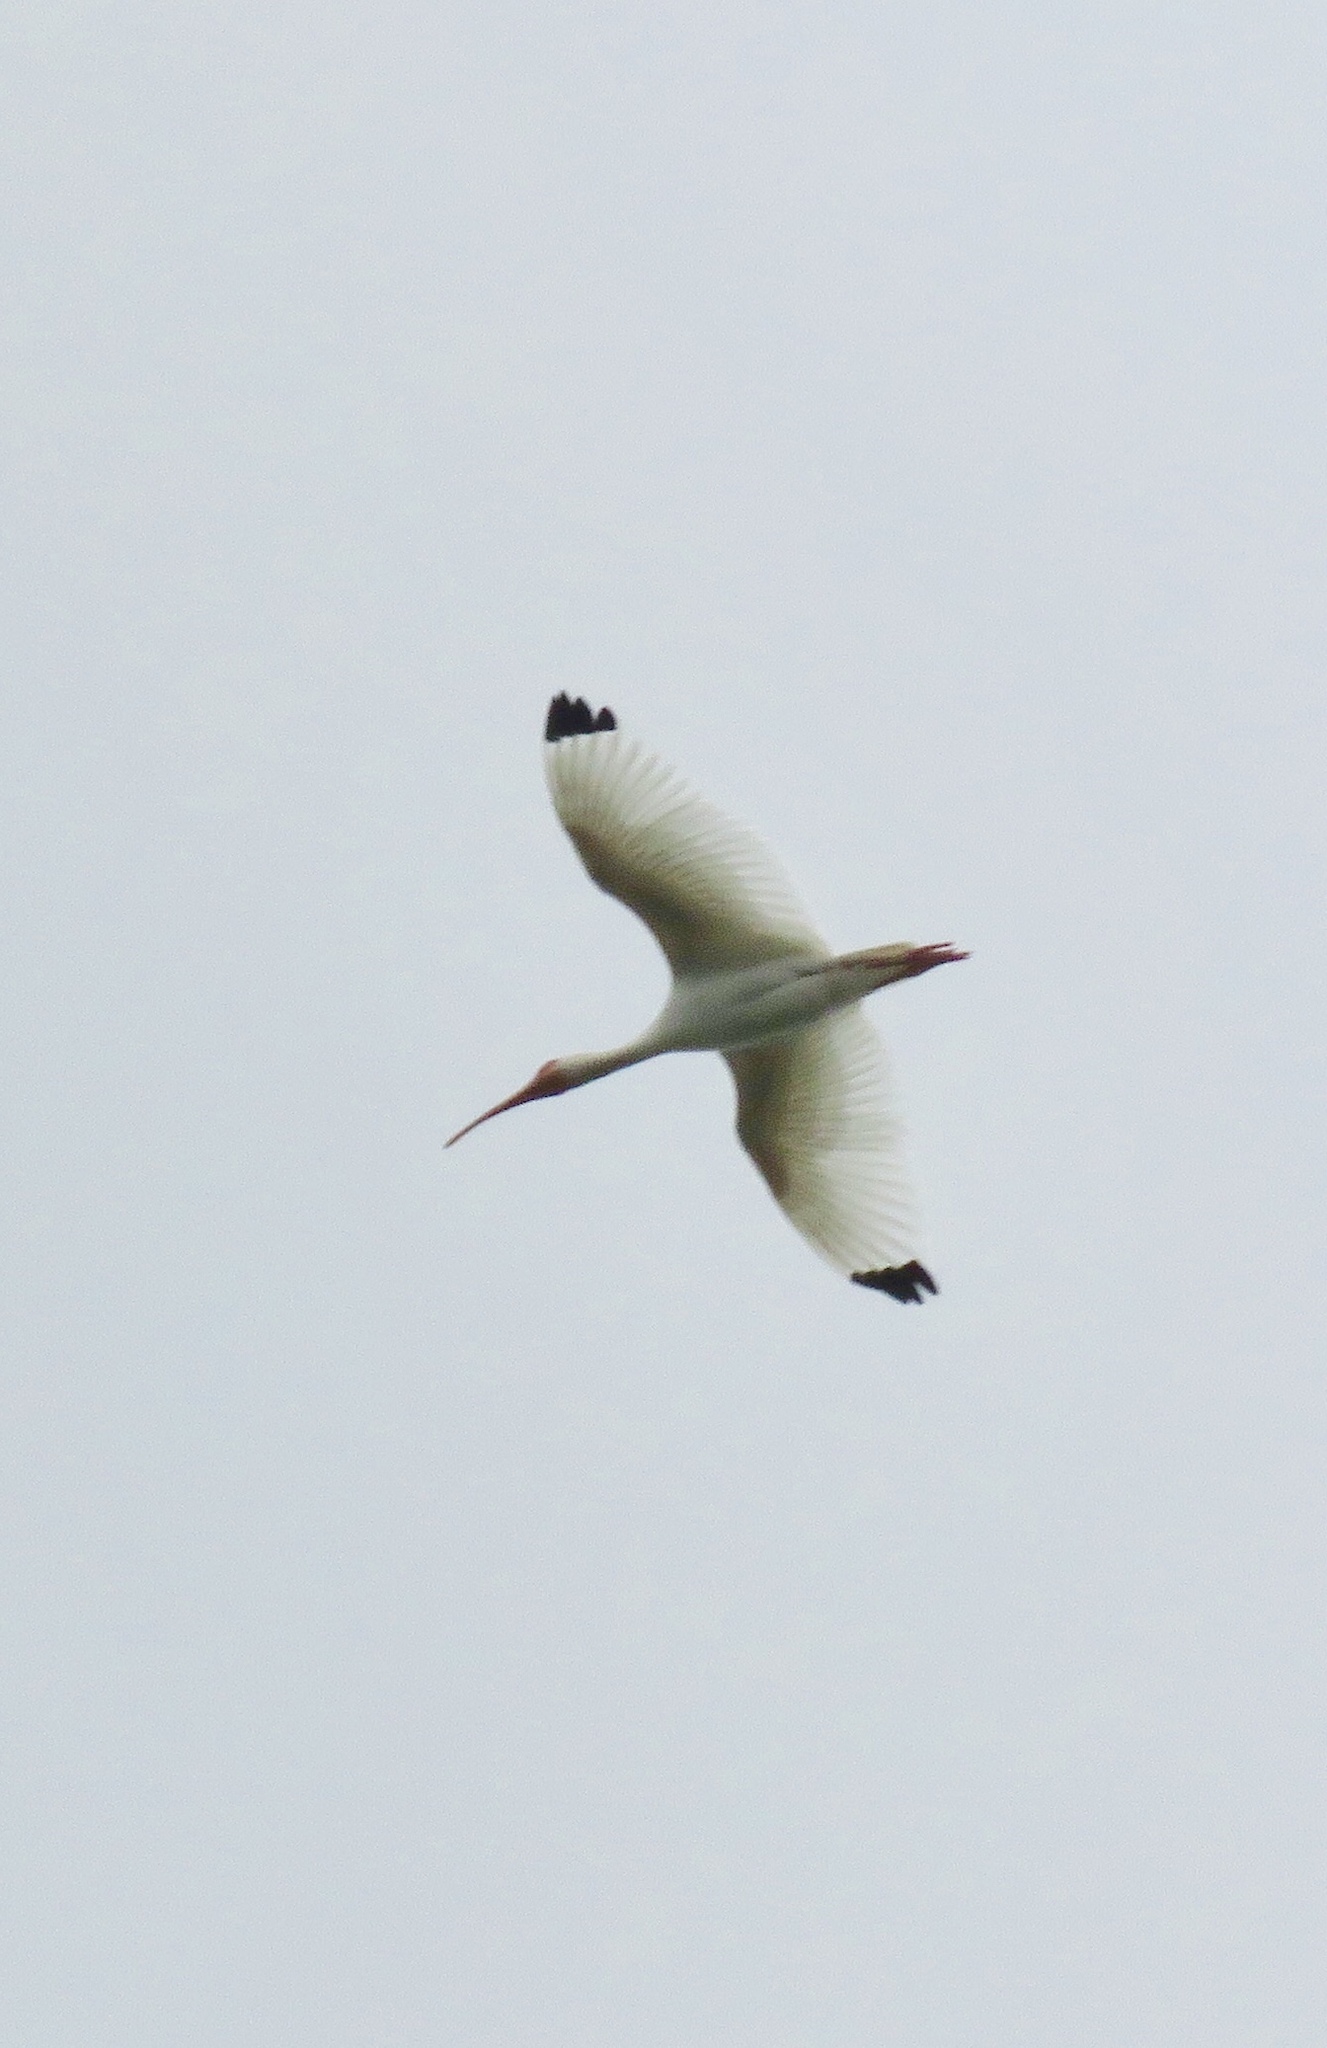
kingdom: Animalia
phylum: Chordata
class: Aves
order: Pelecaniformes
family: Threskiornithidae
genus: Eudocimus
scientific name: Eudocimus albus
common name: White ibis
